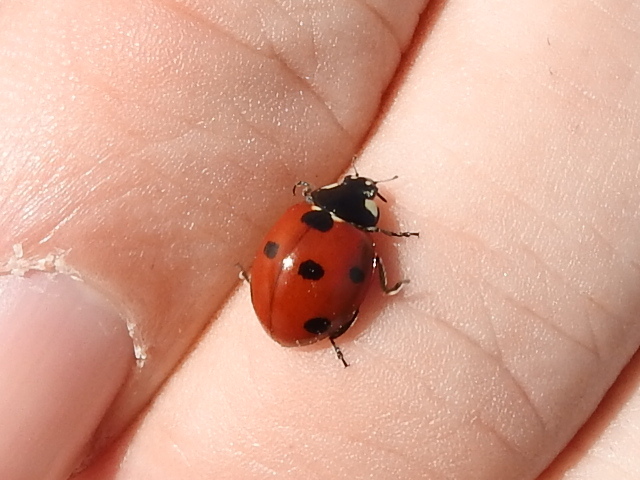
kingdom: Animalia
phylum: Arthropoda
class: Insecta
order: Coleoptera
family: Coccinellidae
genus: Coccinella
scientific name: Coccinella septempunctata
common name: Sevenspotted lady beetle
